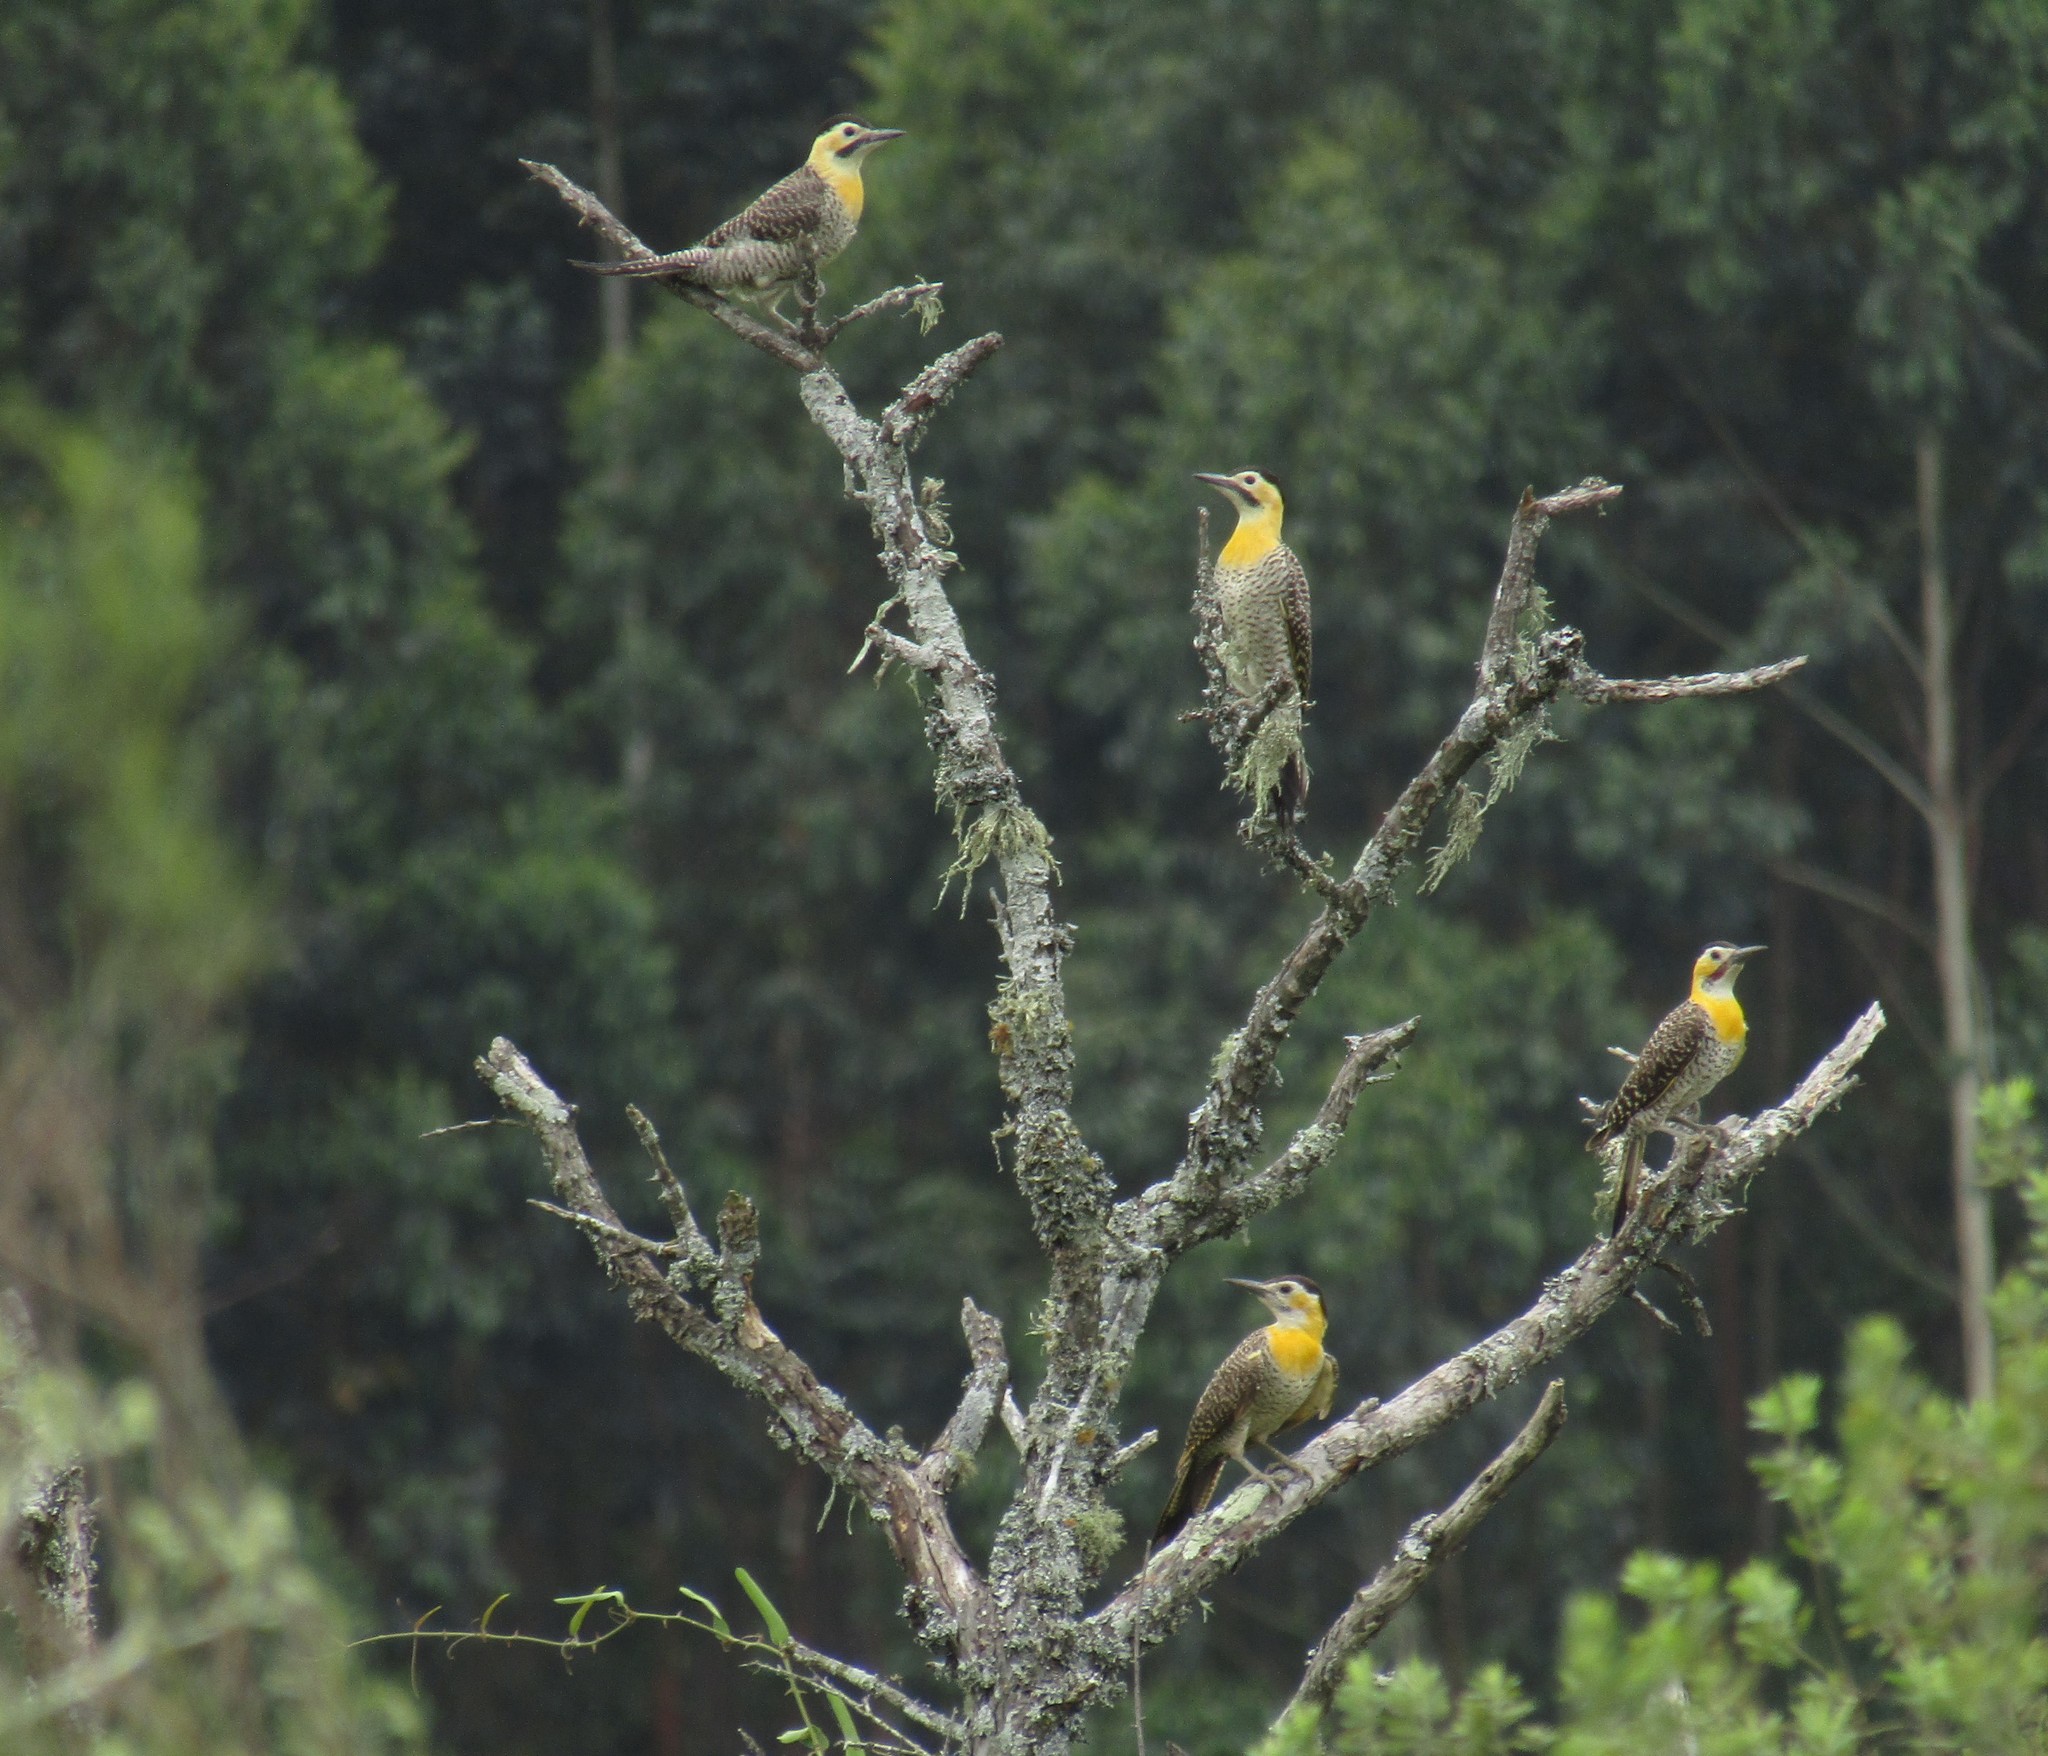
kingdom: Animalia
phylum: Chordata
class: Aves
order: Piciformes
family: Picidae
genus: Colaptes
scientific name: Colaptes campestris
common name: Campo flicker
